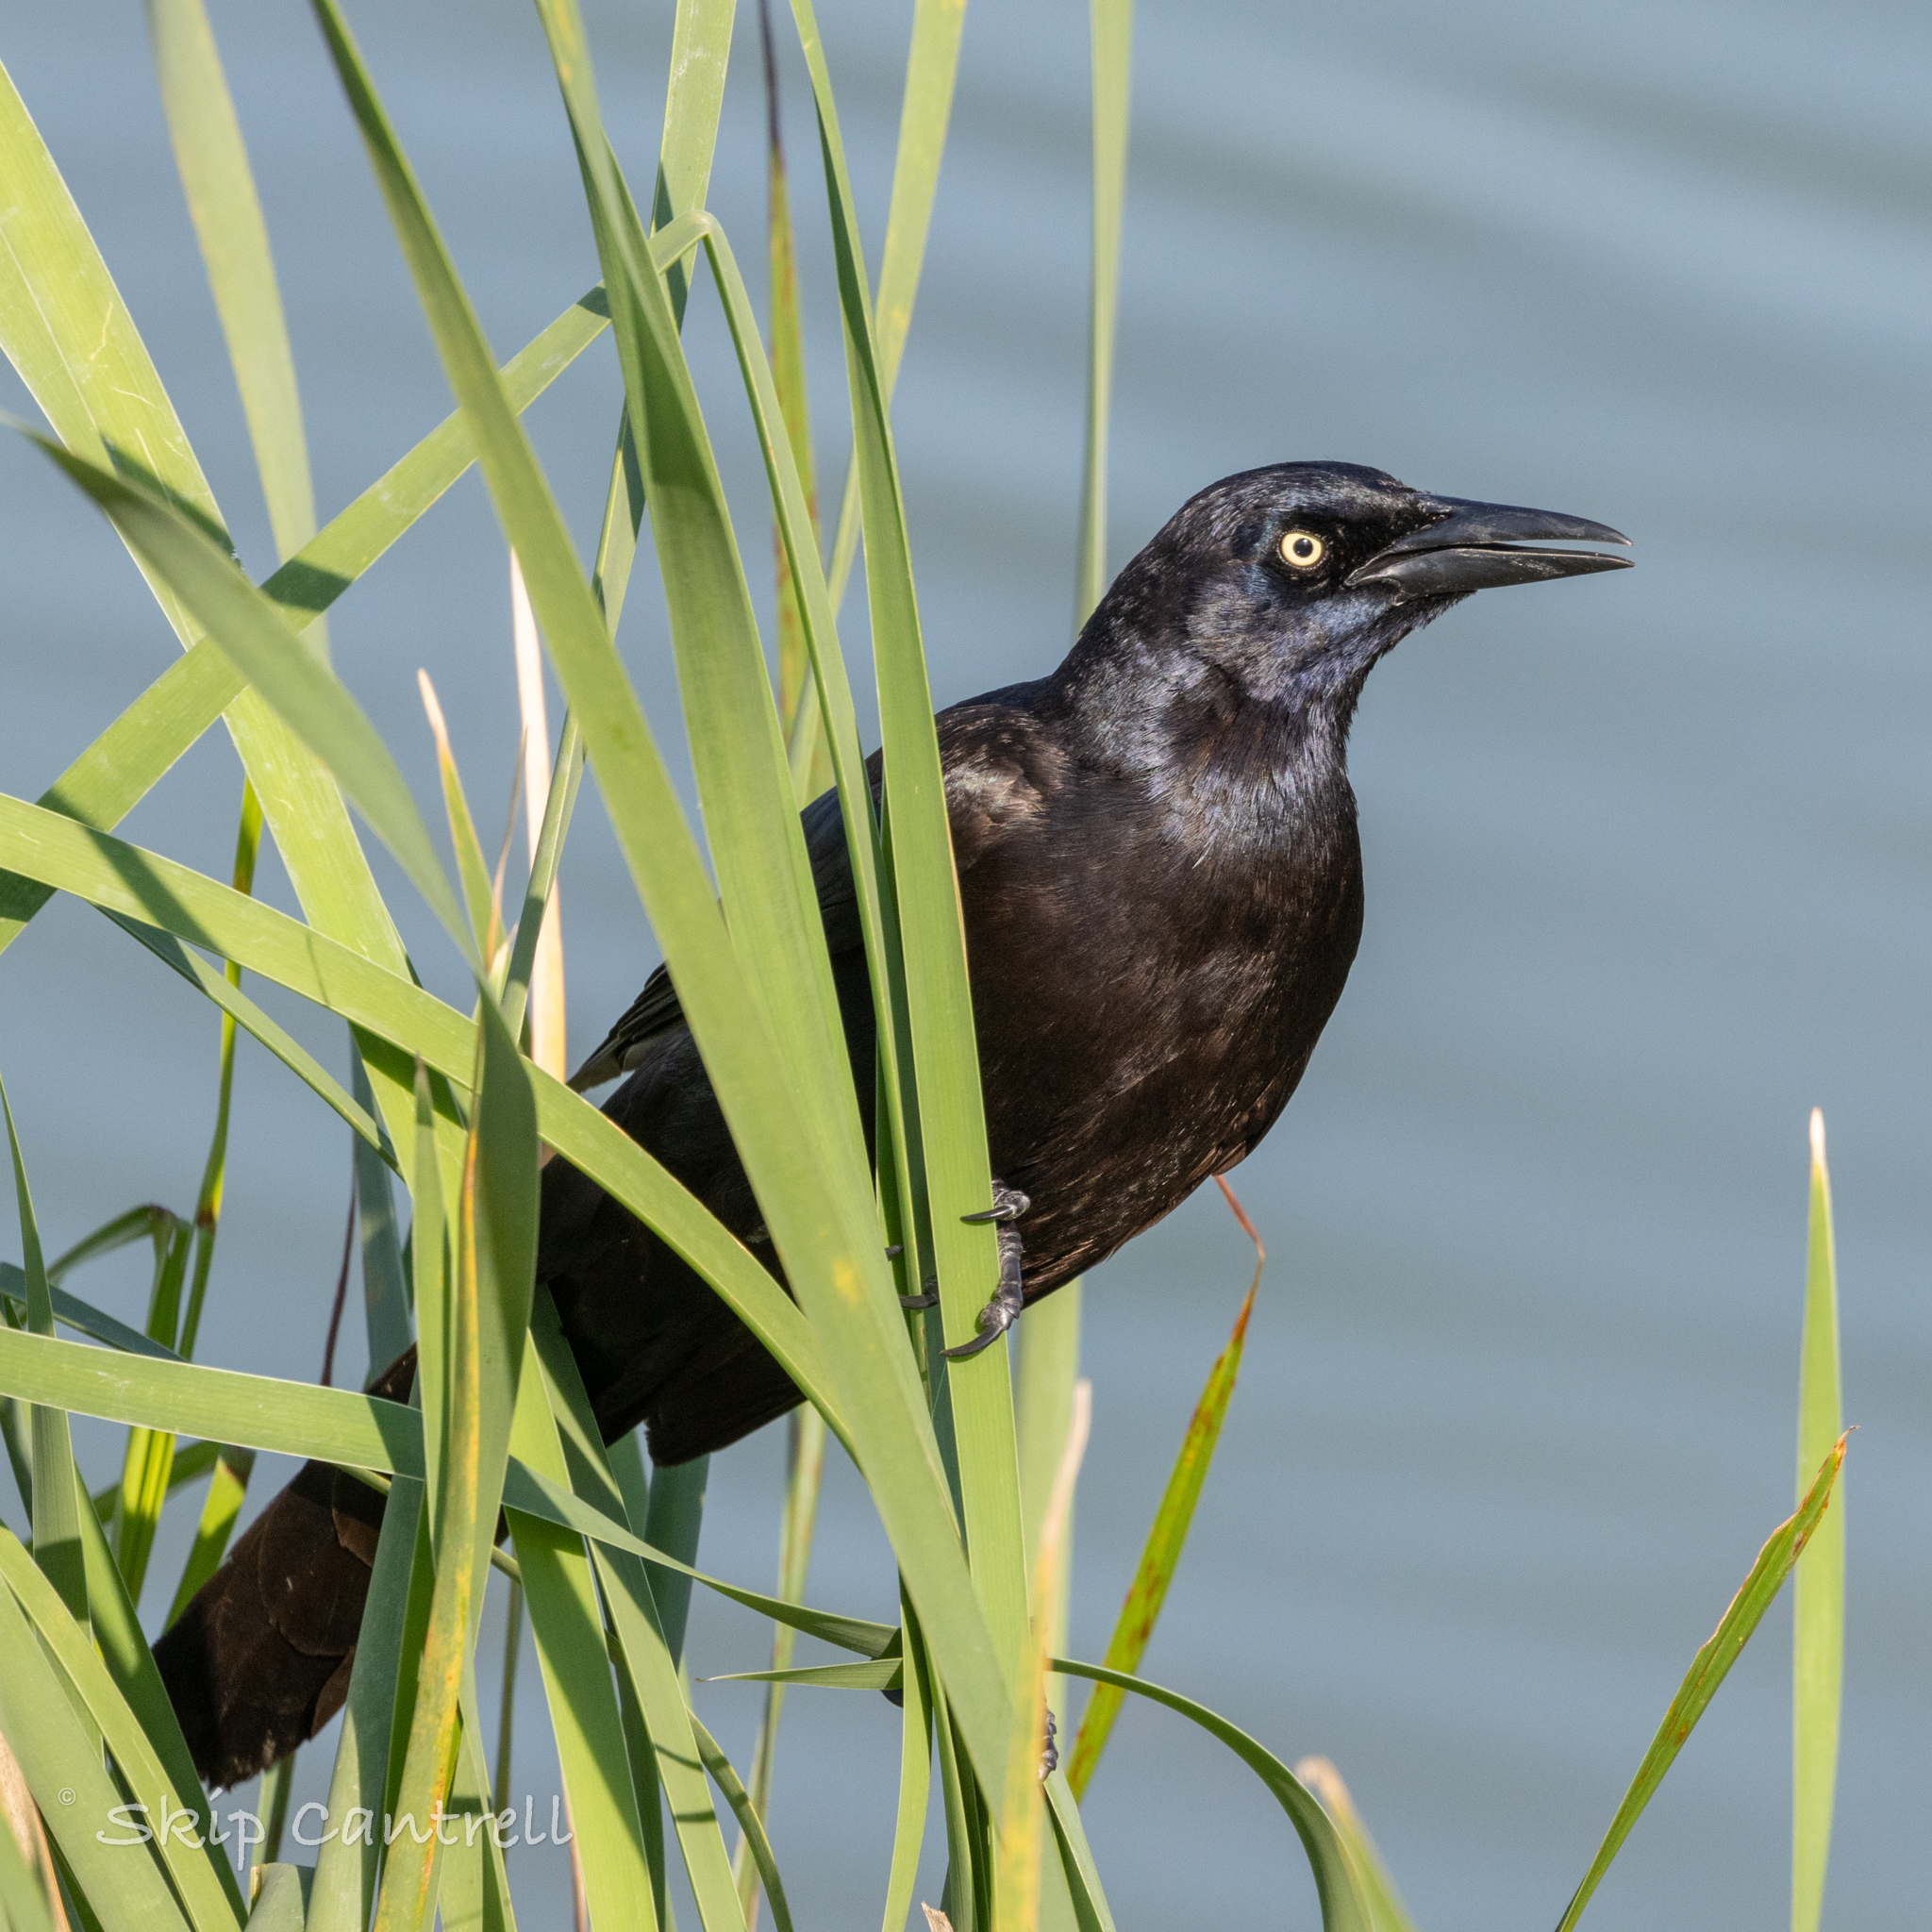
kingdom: Animalia
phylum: Chordata
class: Aves
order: Passeriformes
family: Icteridae
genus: Quiscalus
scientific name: Quiscalus mexicanus
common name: Great-tailed grackle
